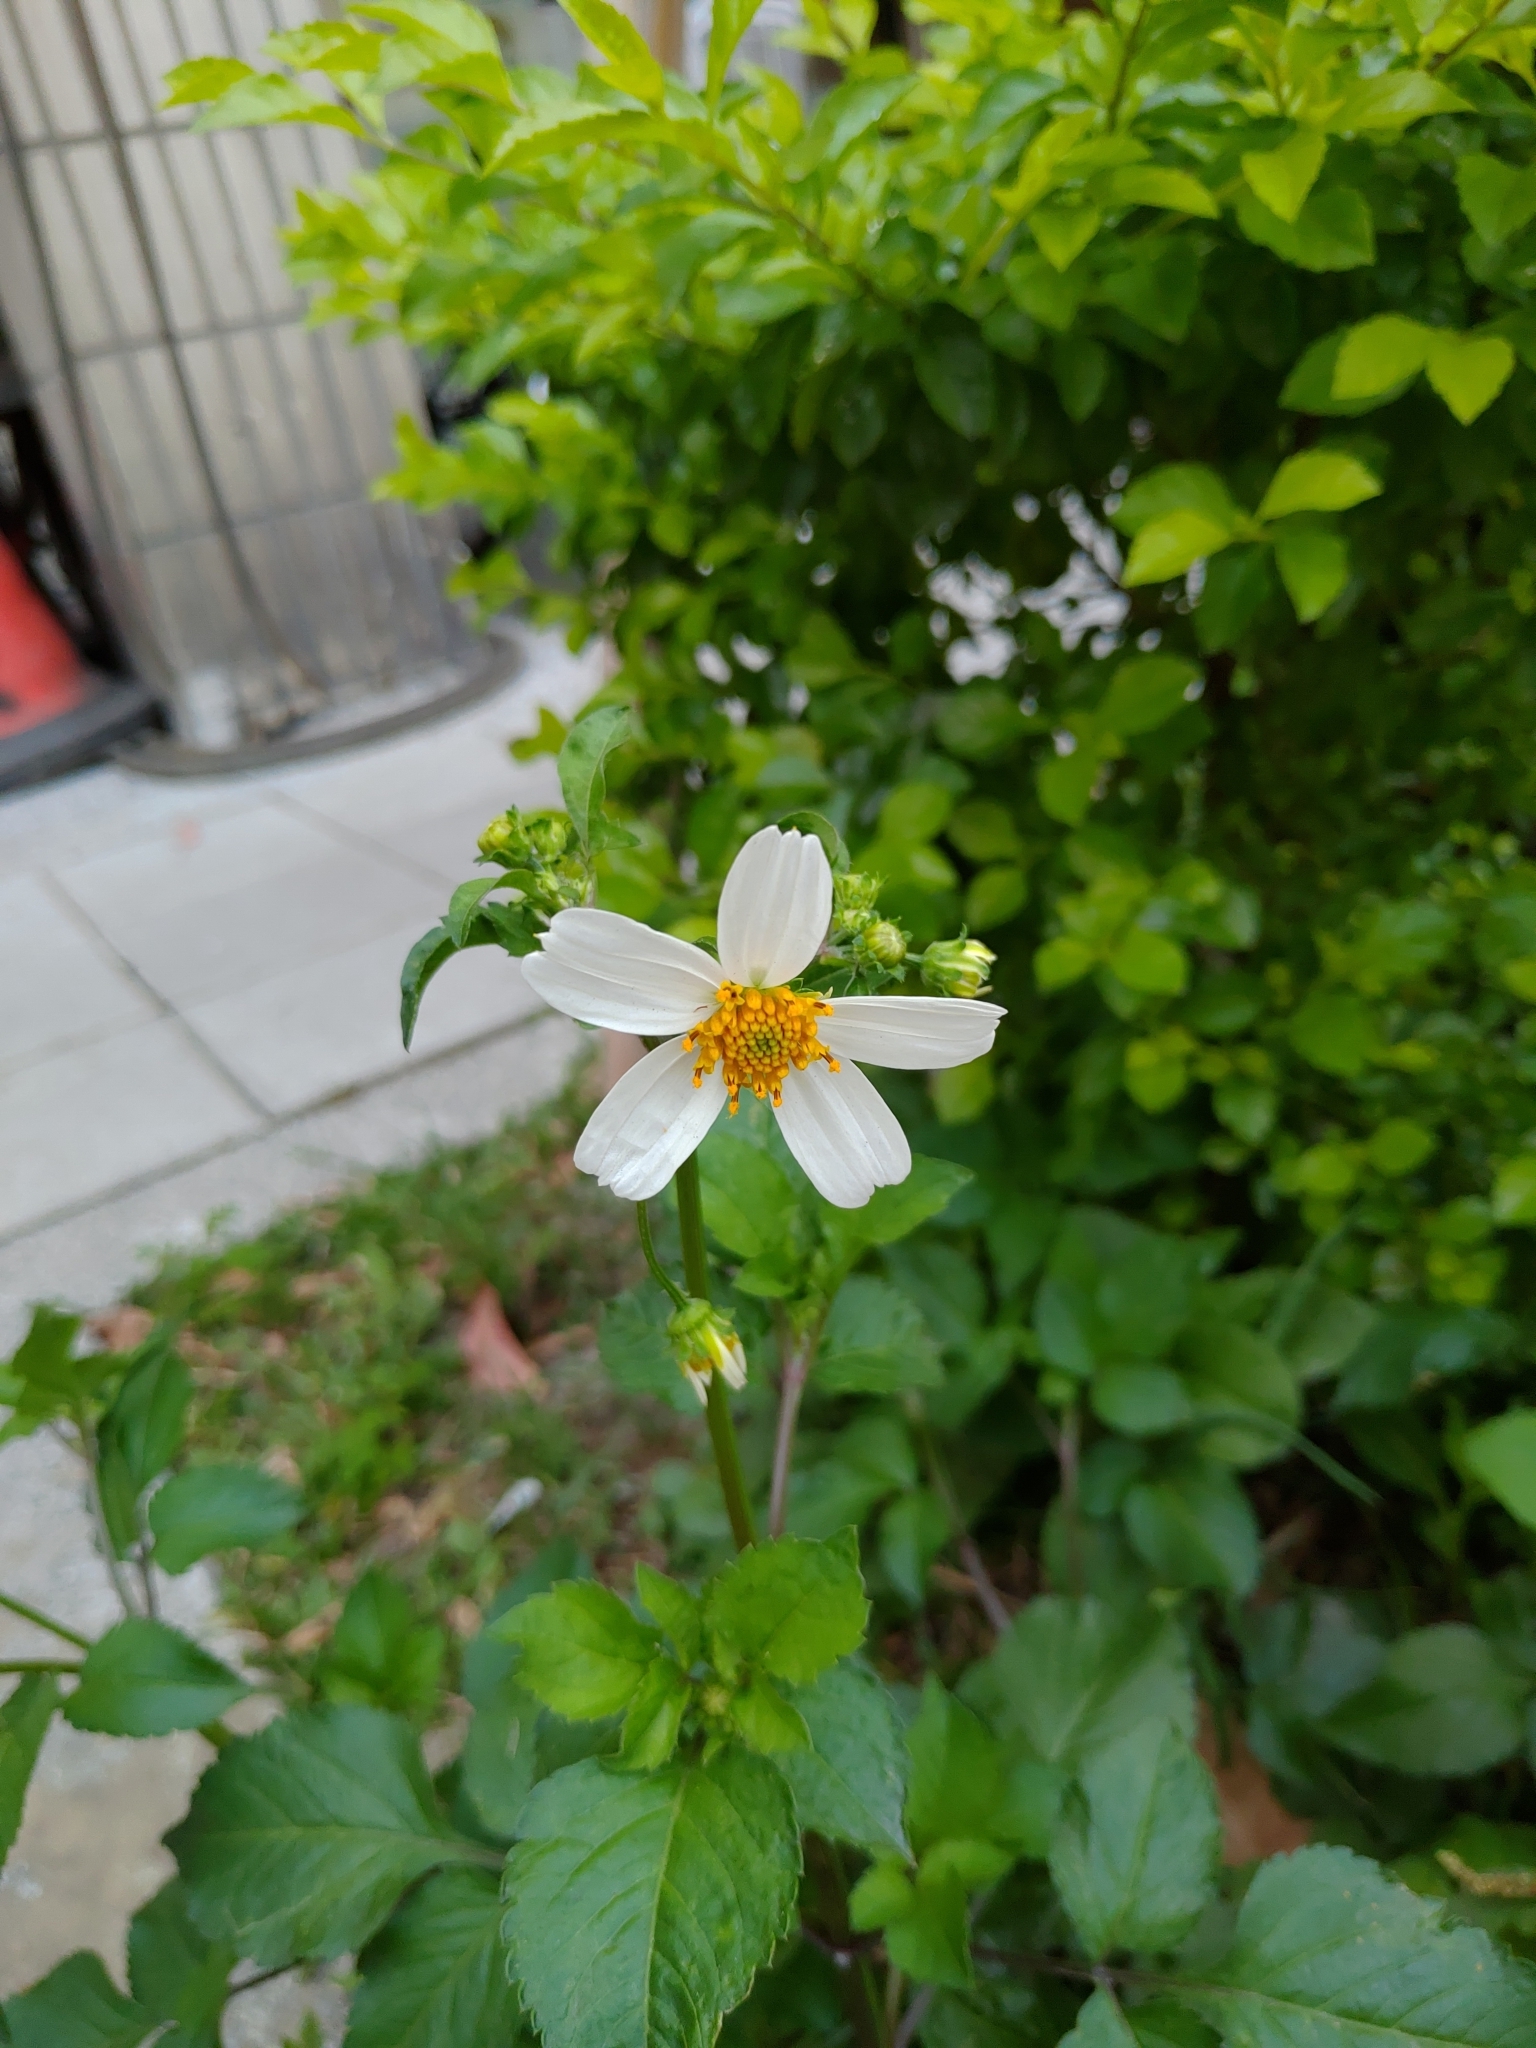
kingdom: Plantae
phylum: Tracheophyta
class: Magnoliopsida
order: Asterales
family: Asteraceae
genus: Bidens
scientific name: Bidens alba
